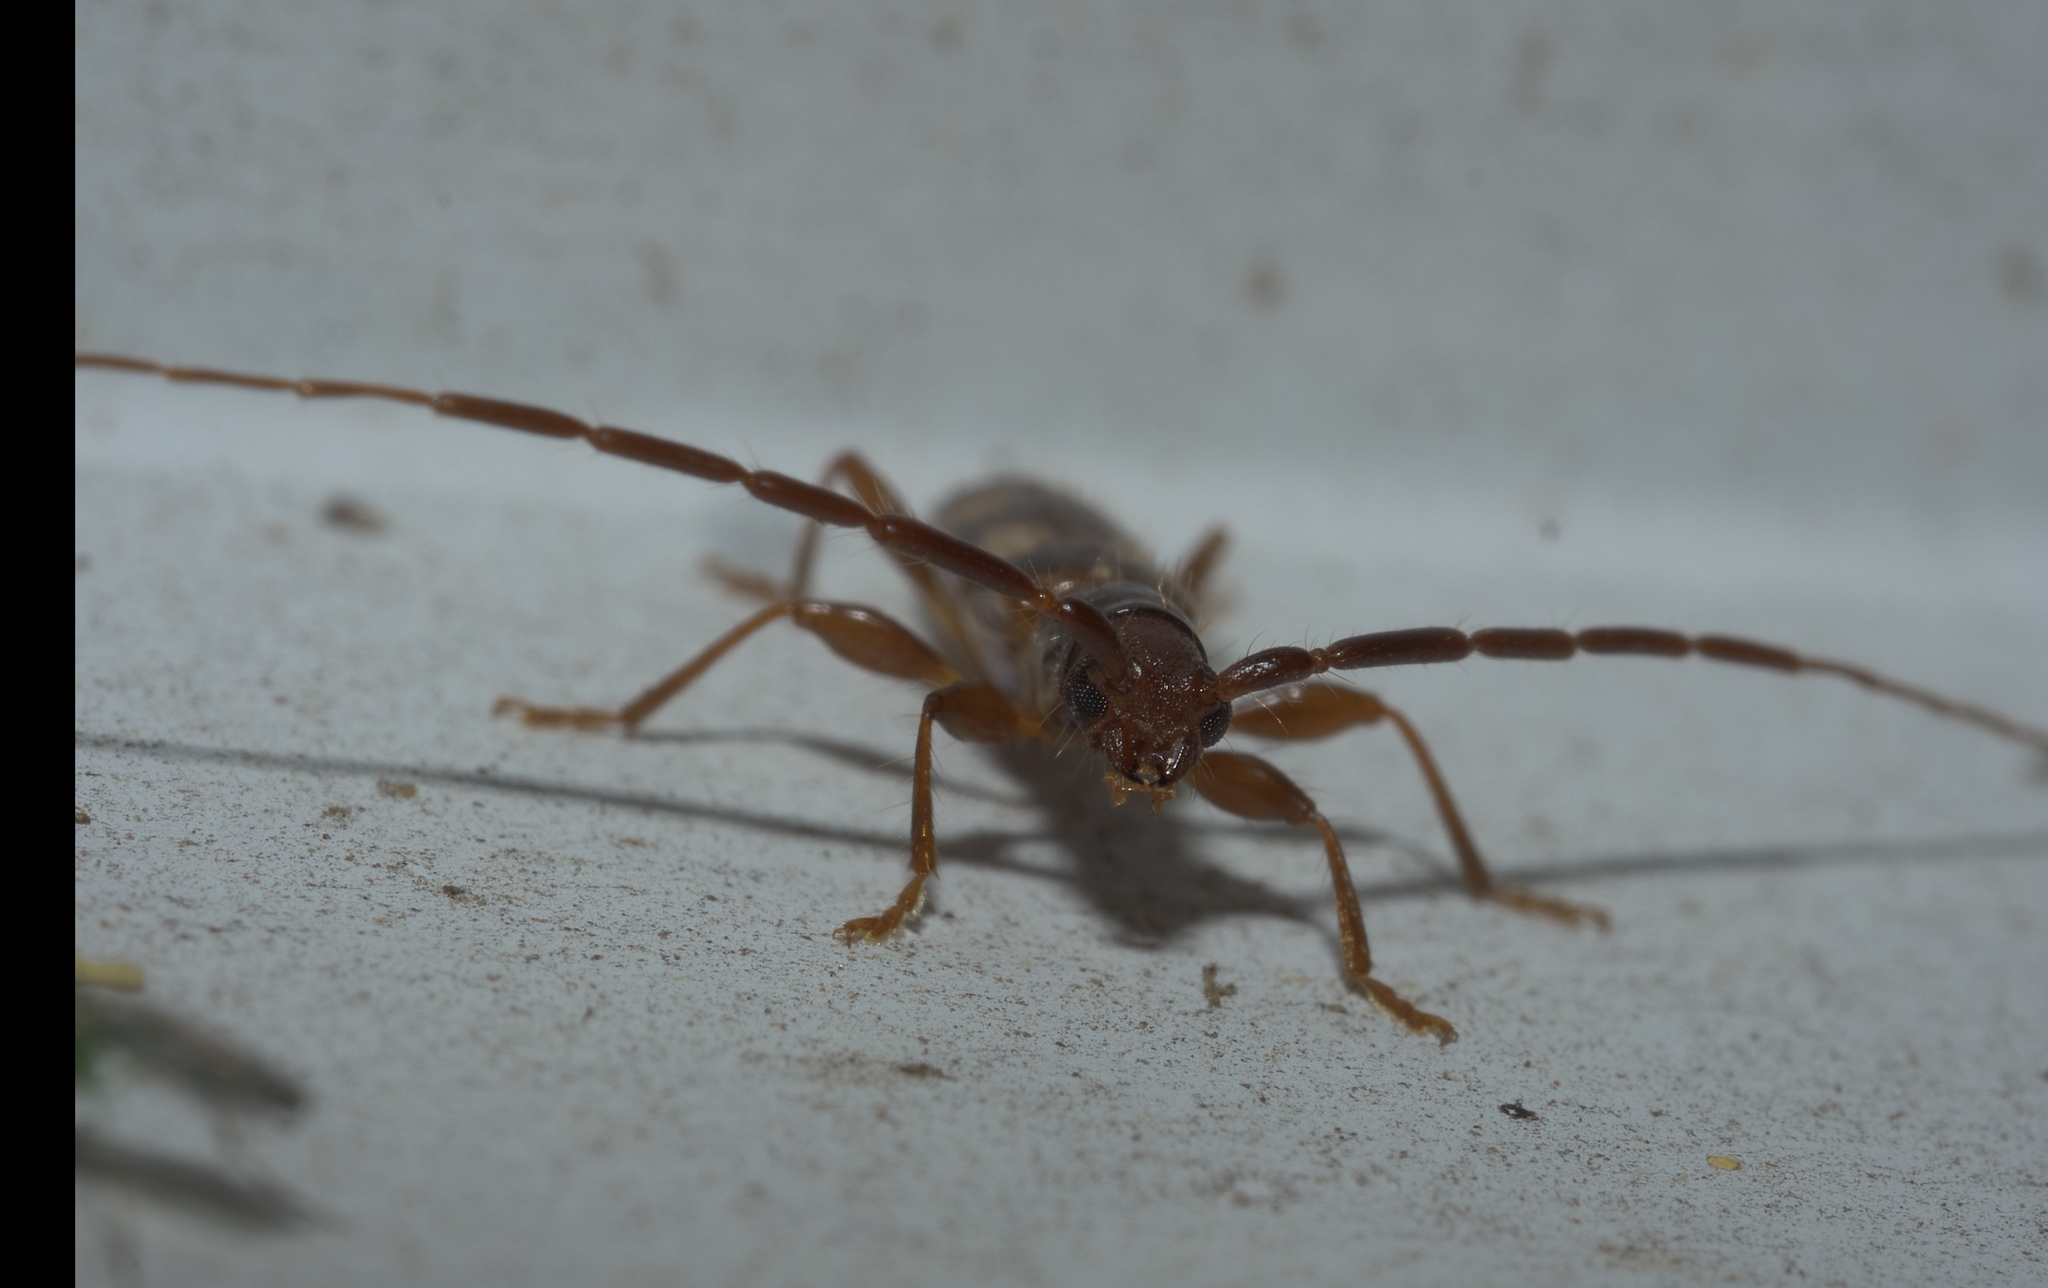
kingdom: Animalia
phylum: Arthropoda
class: Insecta
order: Coleoptera
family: Cerambycidae
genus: Heterachthes
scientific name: Heterachthes quadrimaculatus
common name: Four-spotted hickory borer
